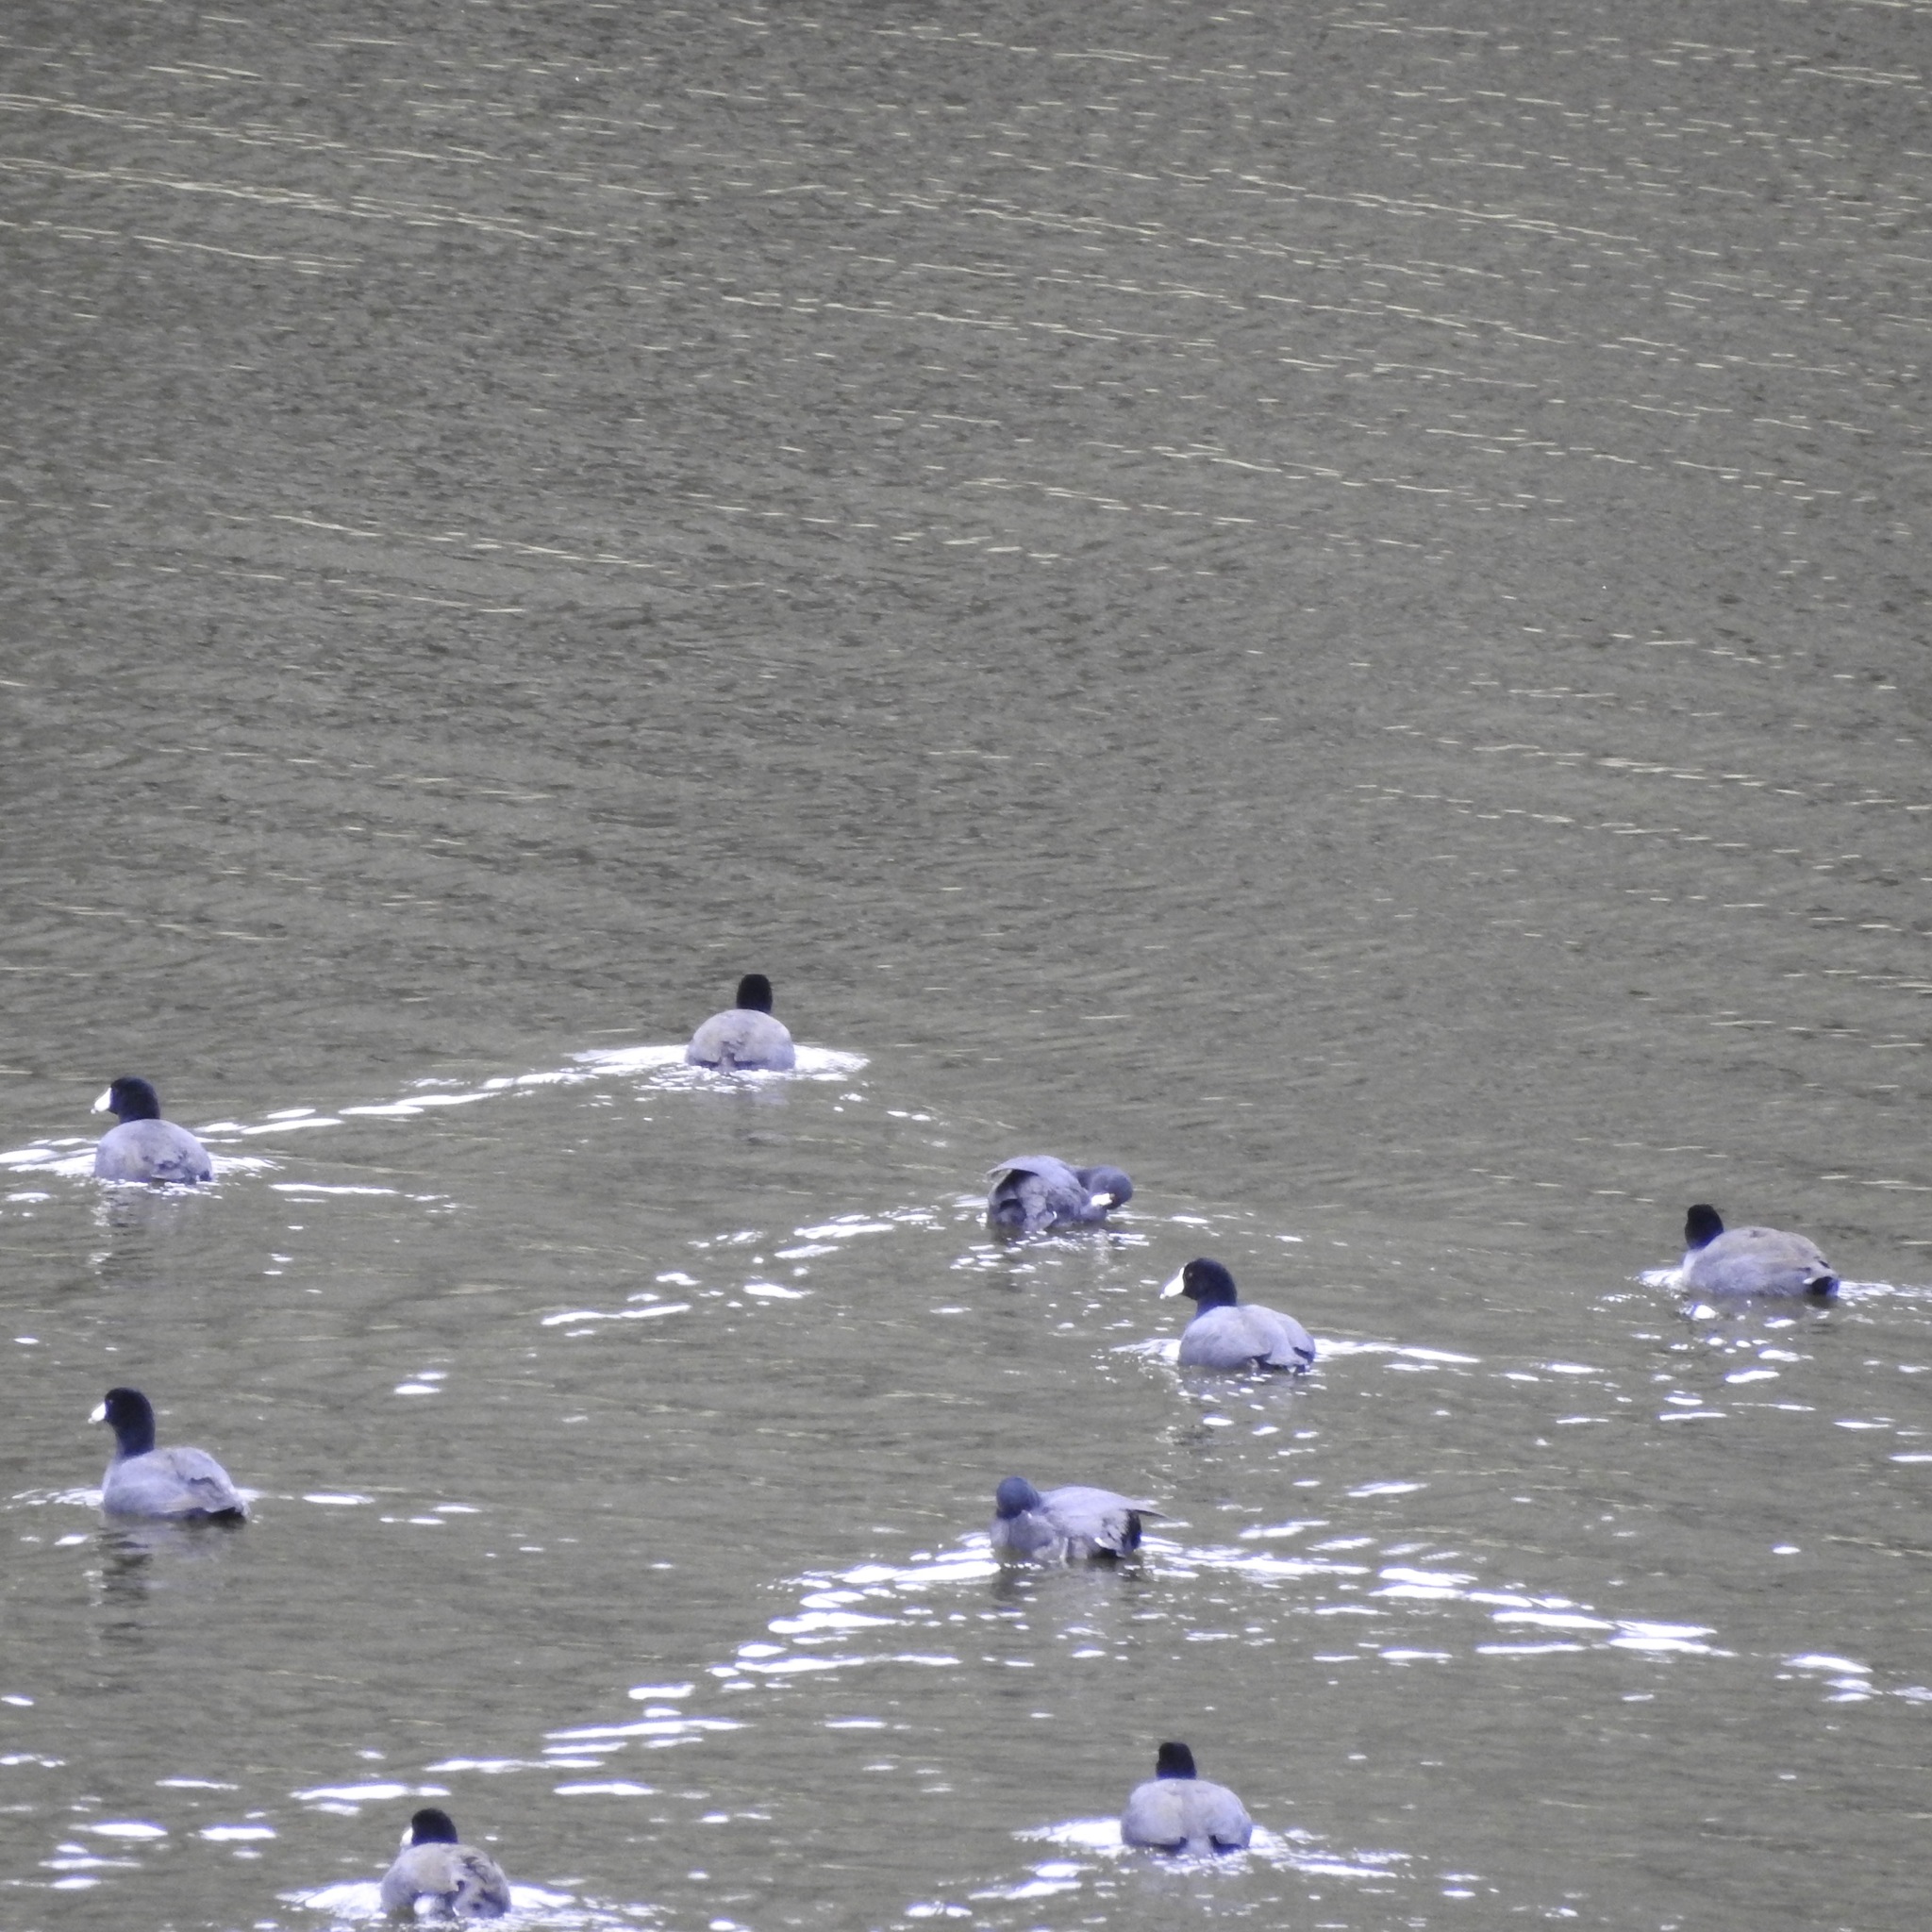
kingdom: Animalia
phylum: Chordata
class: Aves
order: Gruiformes
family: Rallidae
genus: Fulica
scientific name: Fulica americana
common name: American coot
